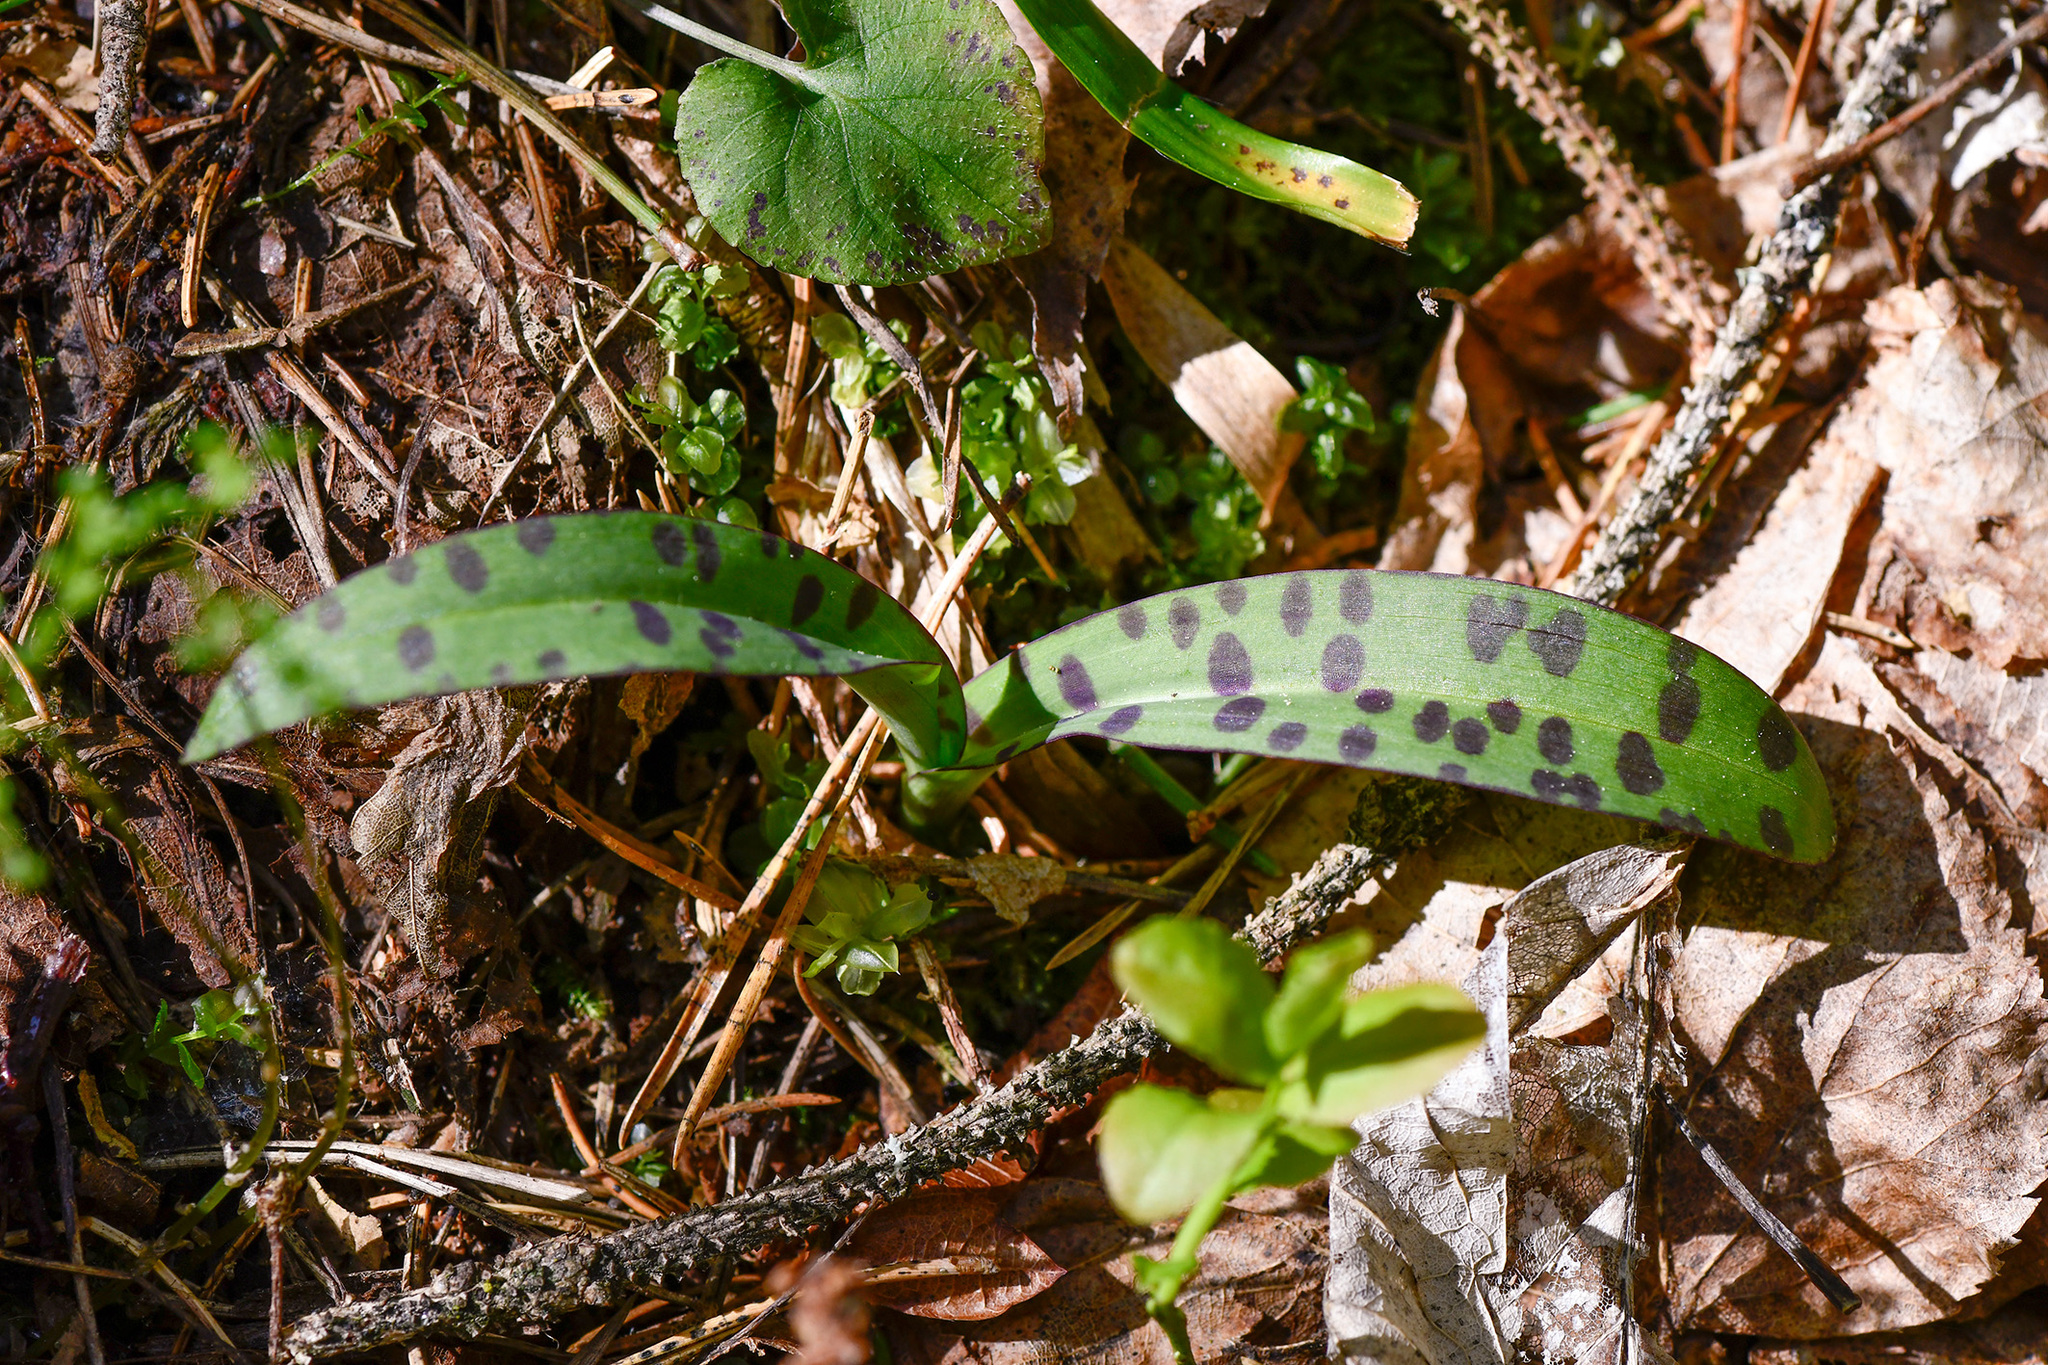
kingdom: Plantae
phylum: Tracheophyta
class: Liliopsida
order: Asparagales
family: Orchidaceae
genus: Dactylorhiza
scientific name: Dactylorhiza maculata
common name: Heath spotted-orchid
